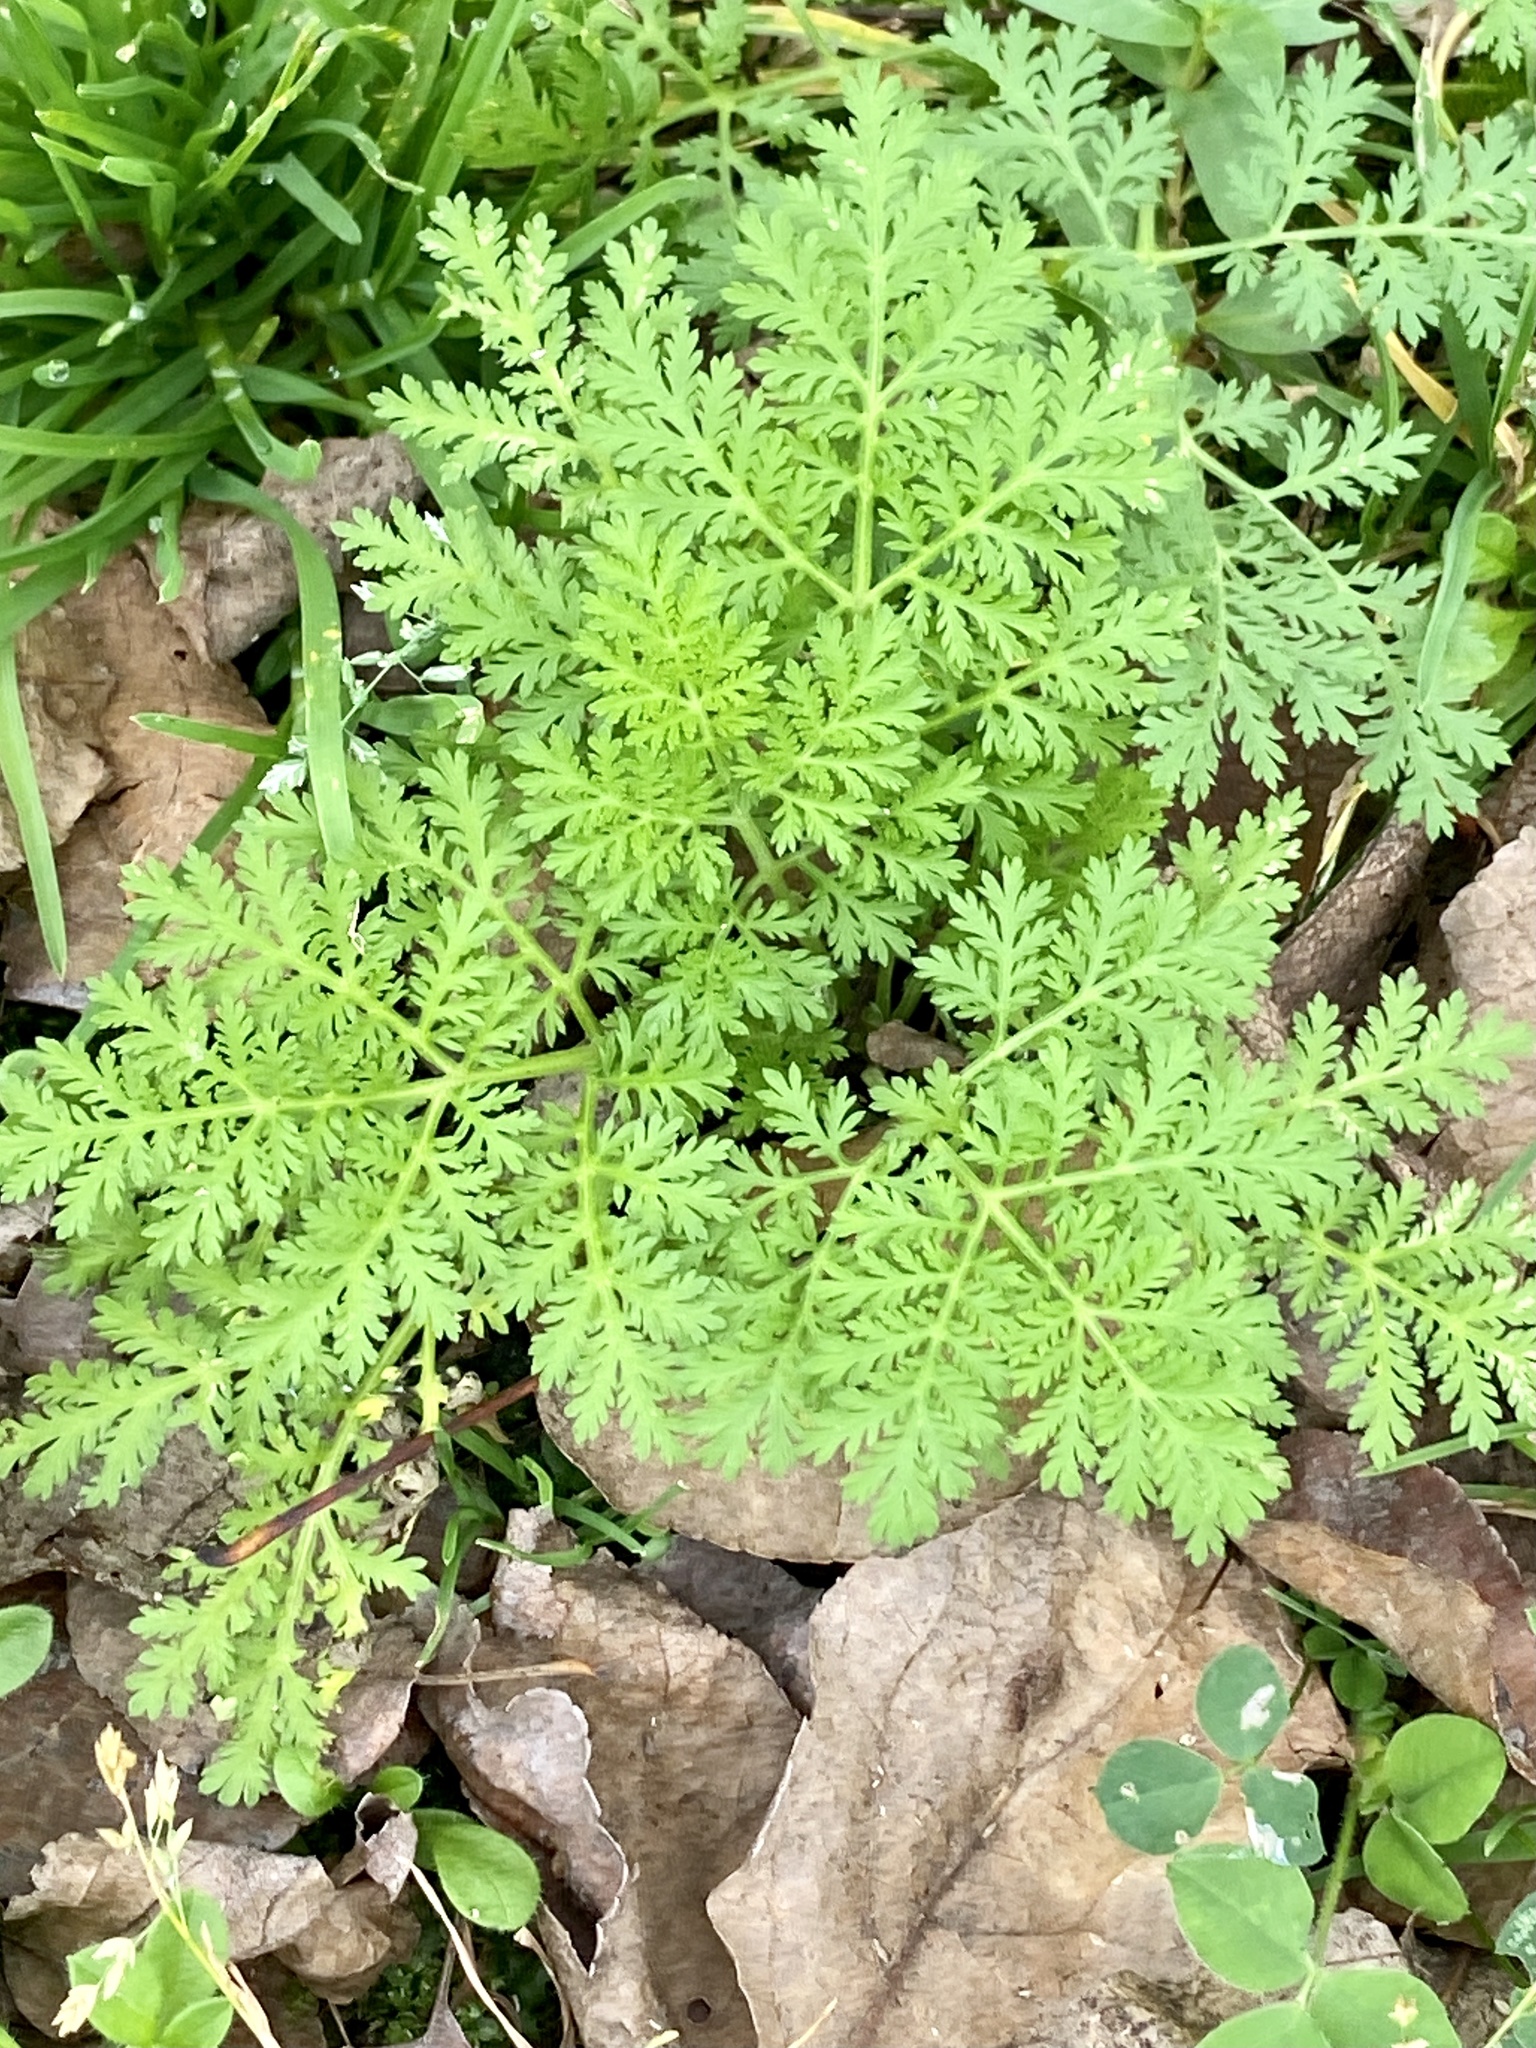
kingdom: Plantae
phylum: Tracheophyta
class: Magnoliopsida
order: Asterales
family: Asteraceae
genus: Artemisia
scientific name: Artemisia annua
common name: Sweet sagewort
